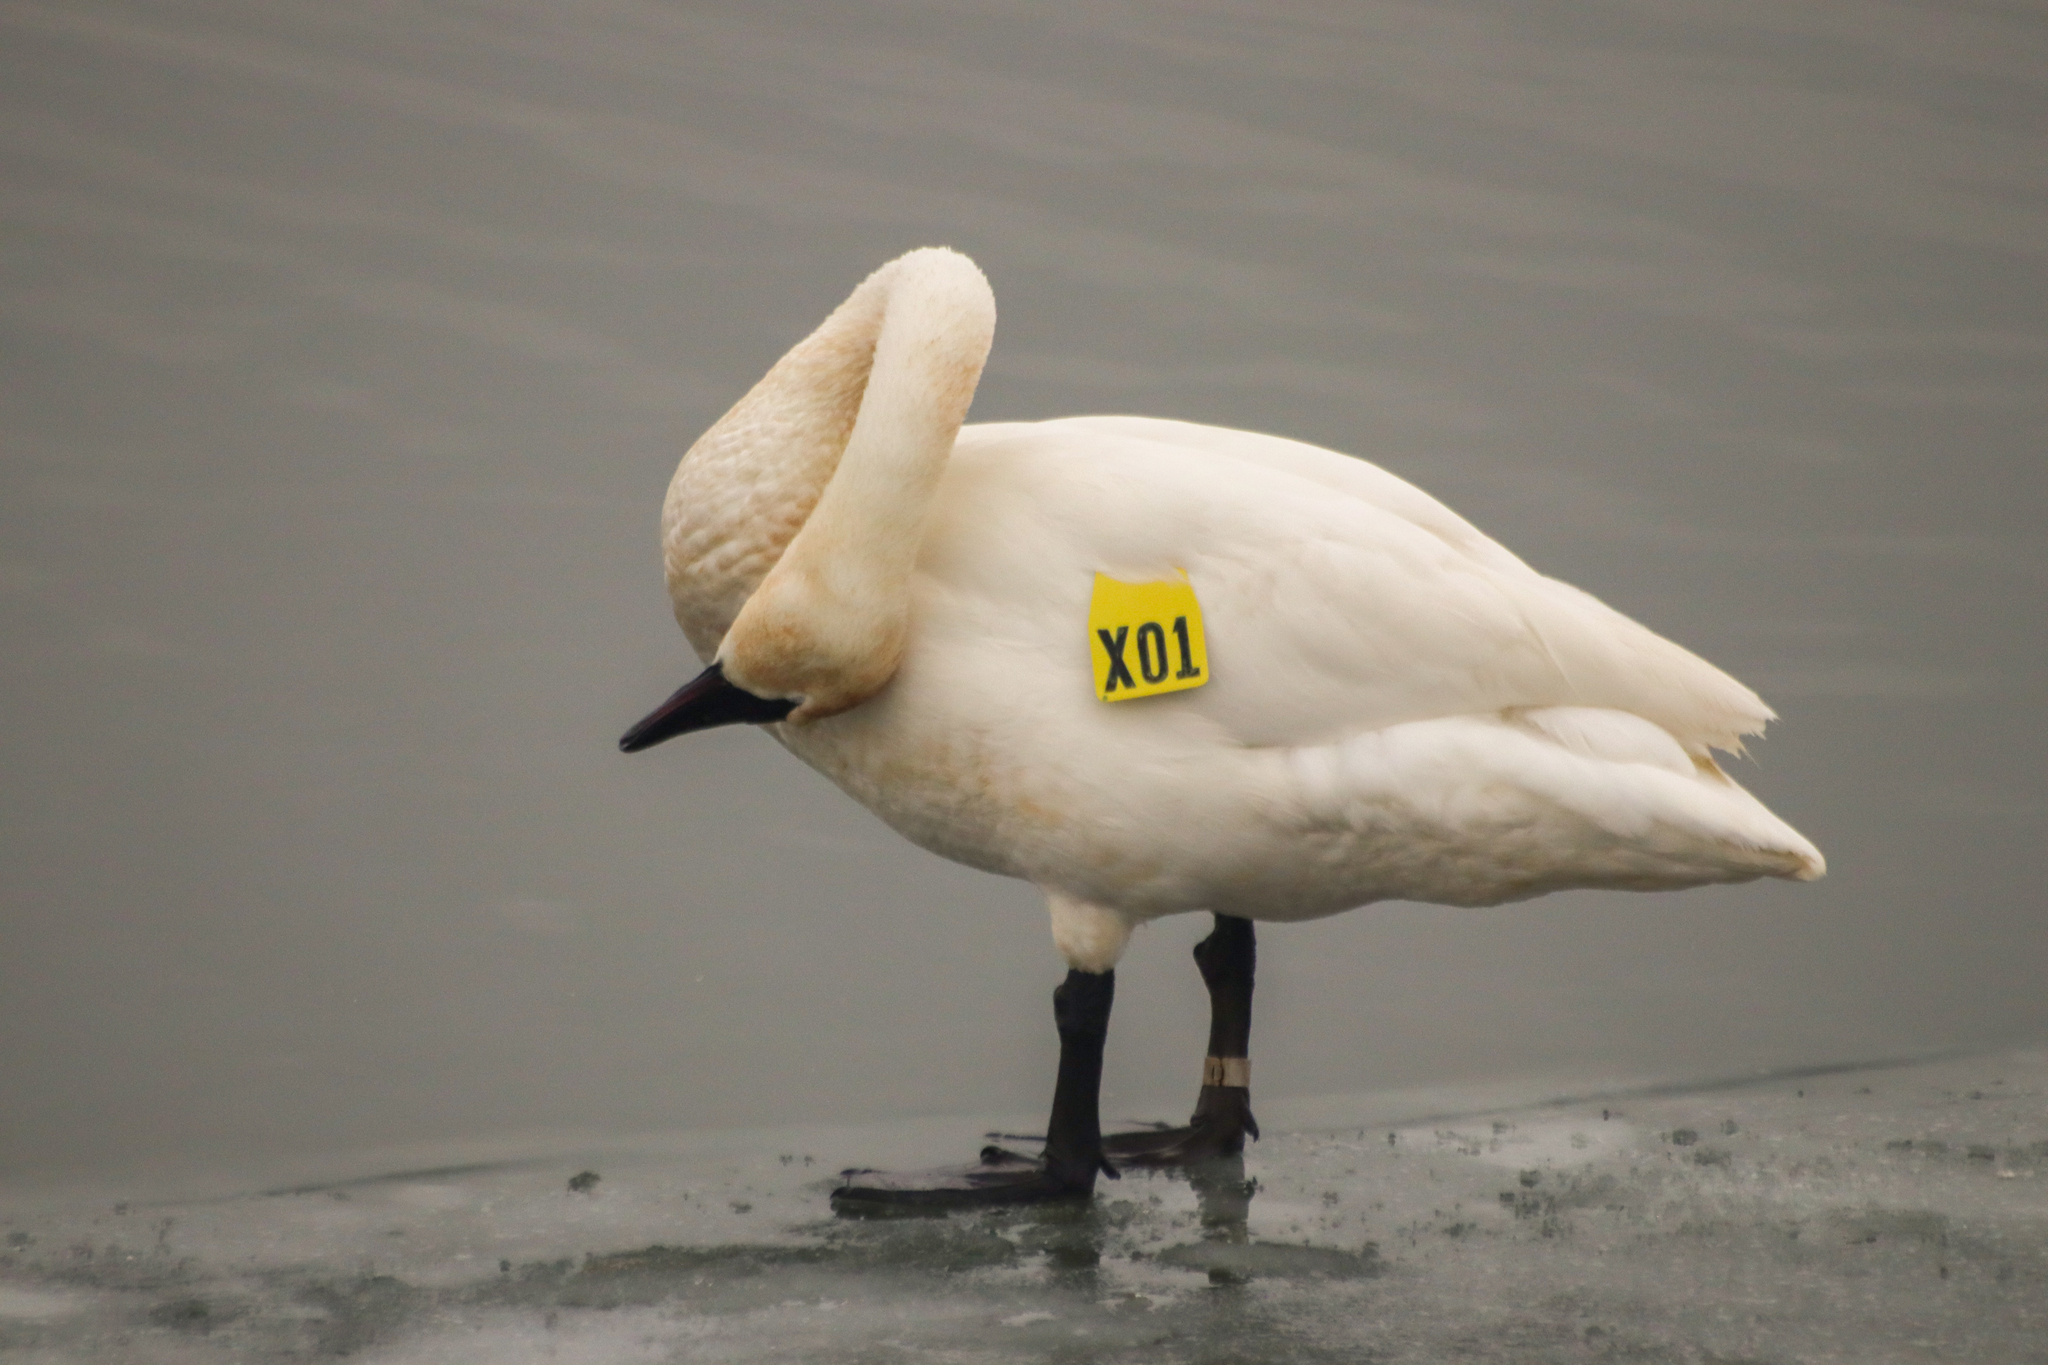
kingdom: Animalia
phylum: Chordata
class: Aves
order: Anseriformes
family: Anatidae
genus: Cygnus
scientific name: Cygnus buccinator
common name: Trumpeter swan
